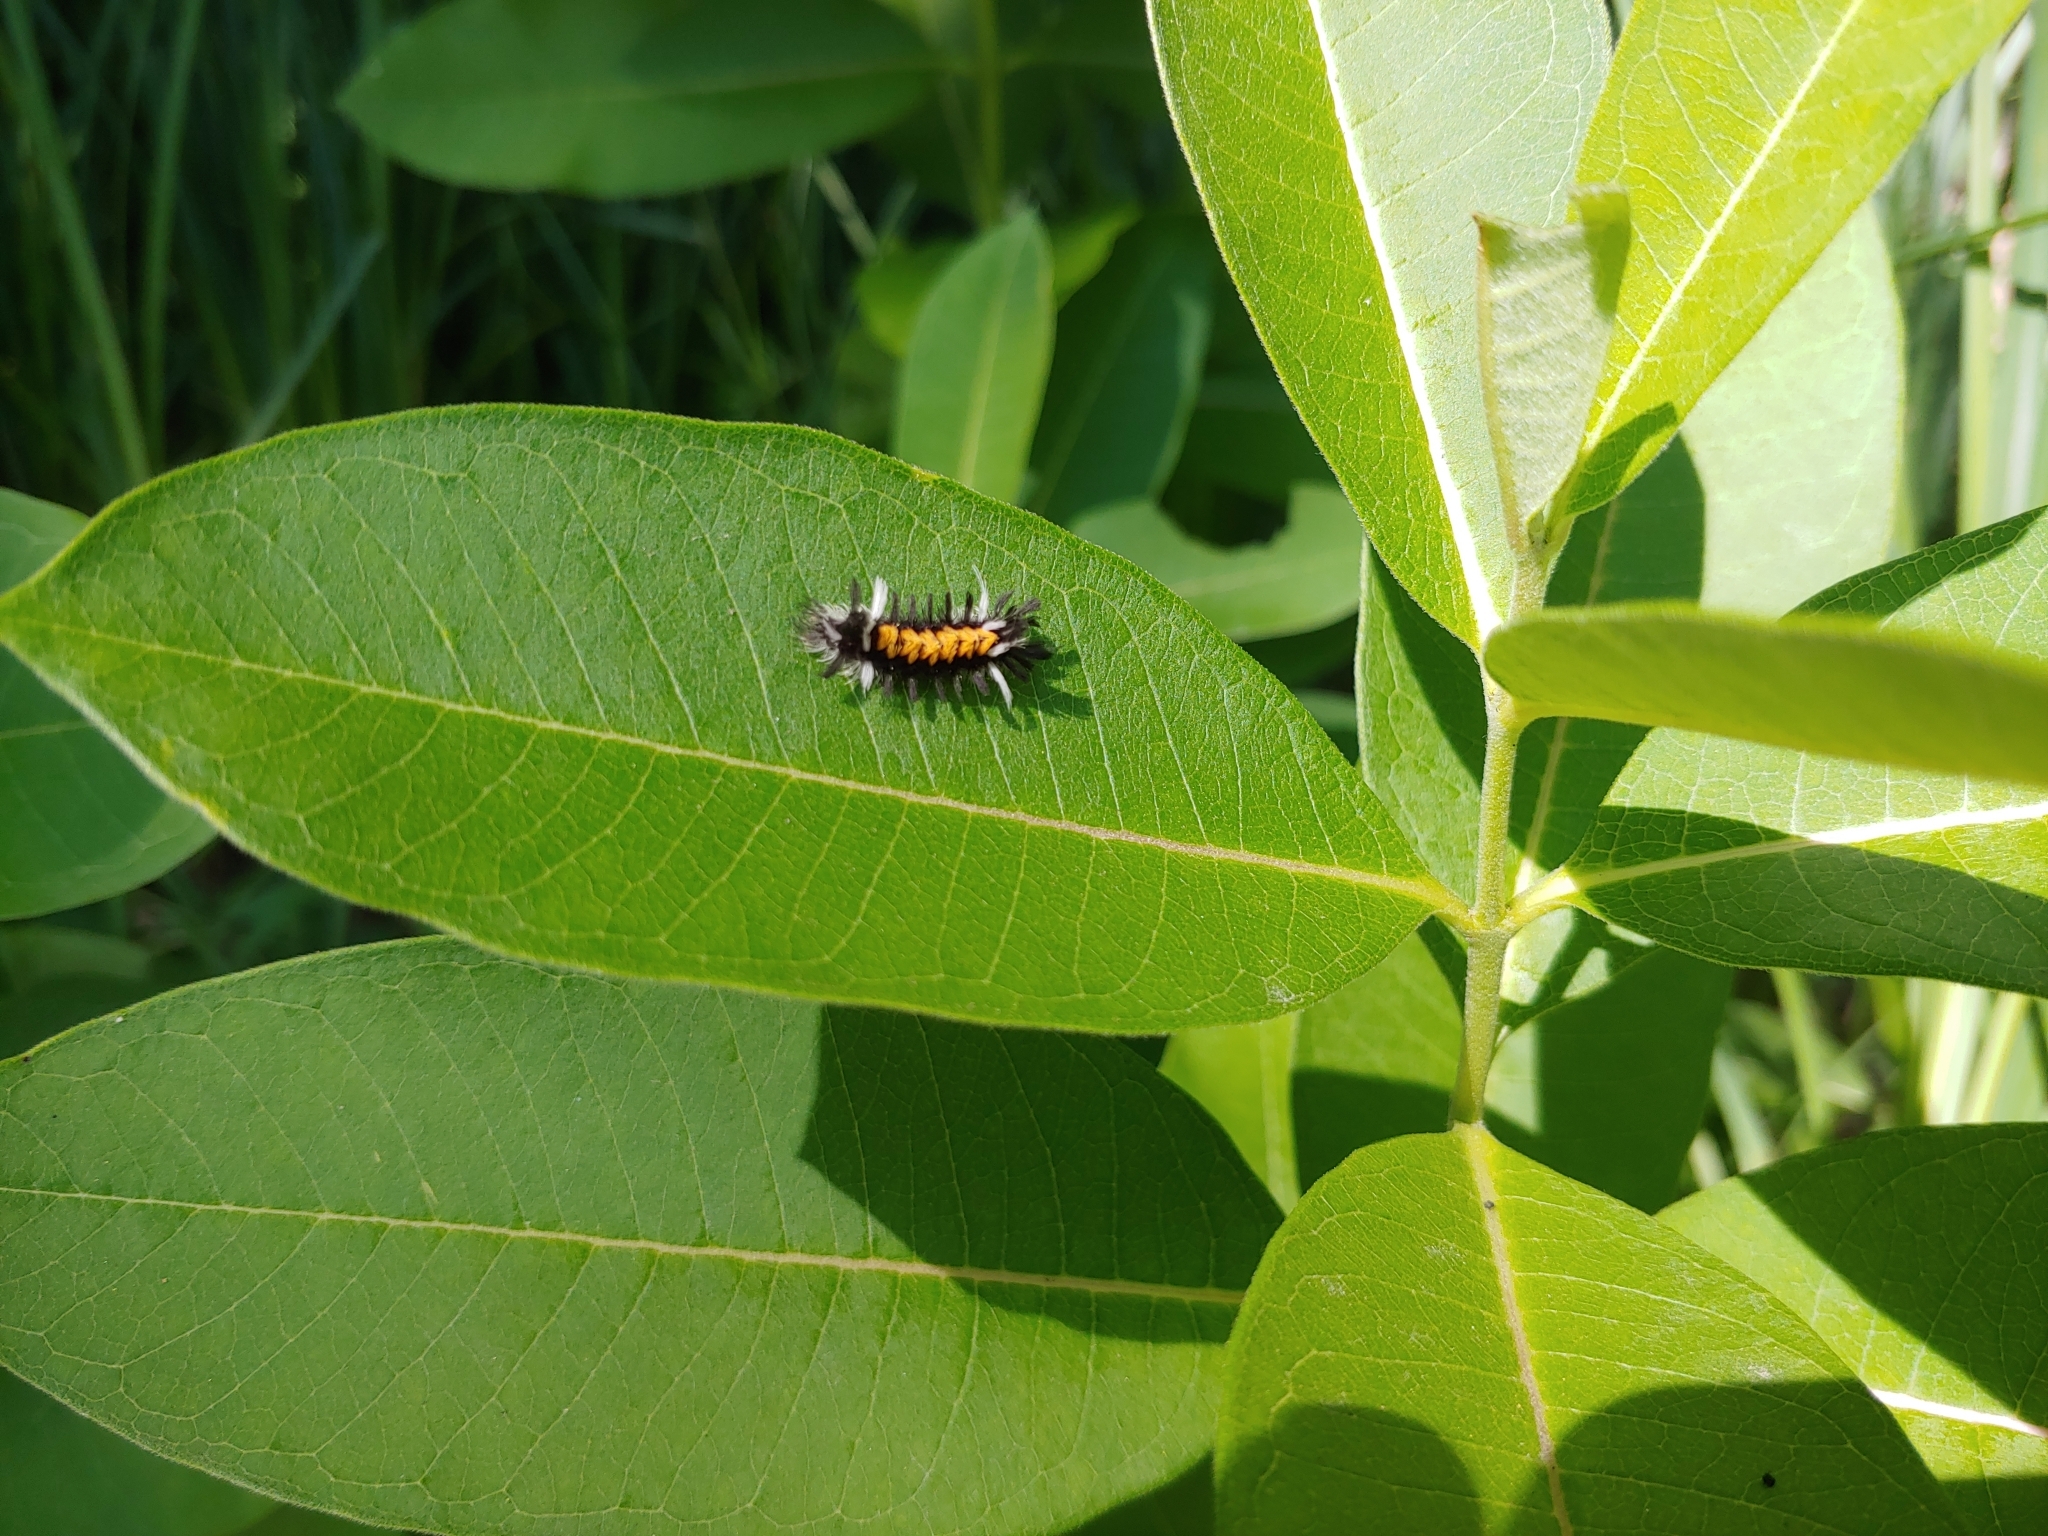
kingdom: Animalia
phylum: Arthropoda
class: Insecta
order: Lepidoptera
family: Erebidae
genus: Euchaetes
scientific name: Euchaetes egle
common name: Milkweed tussock moth
